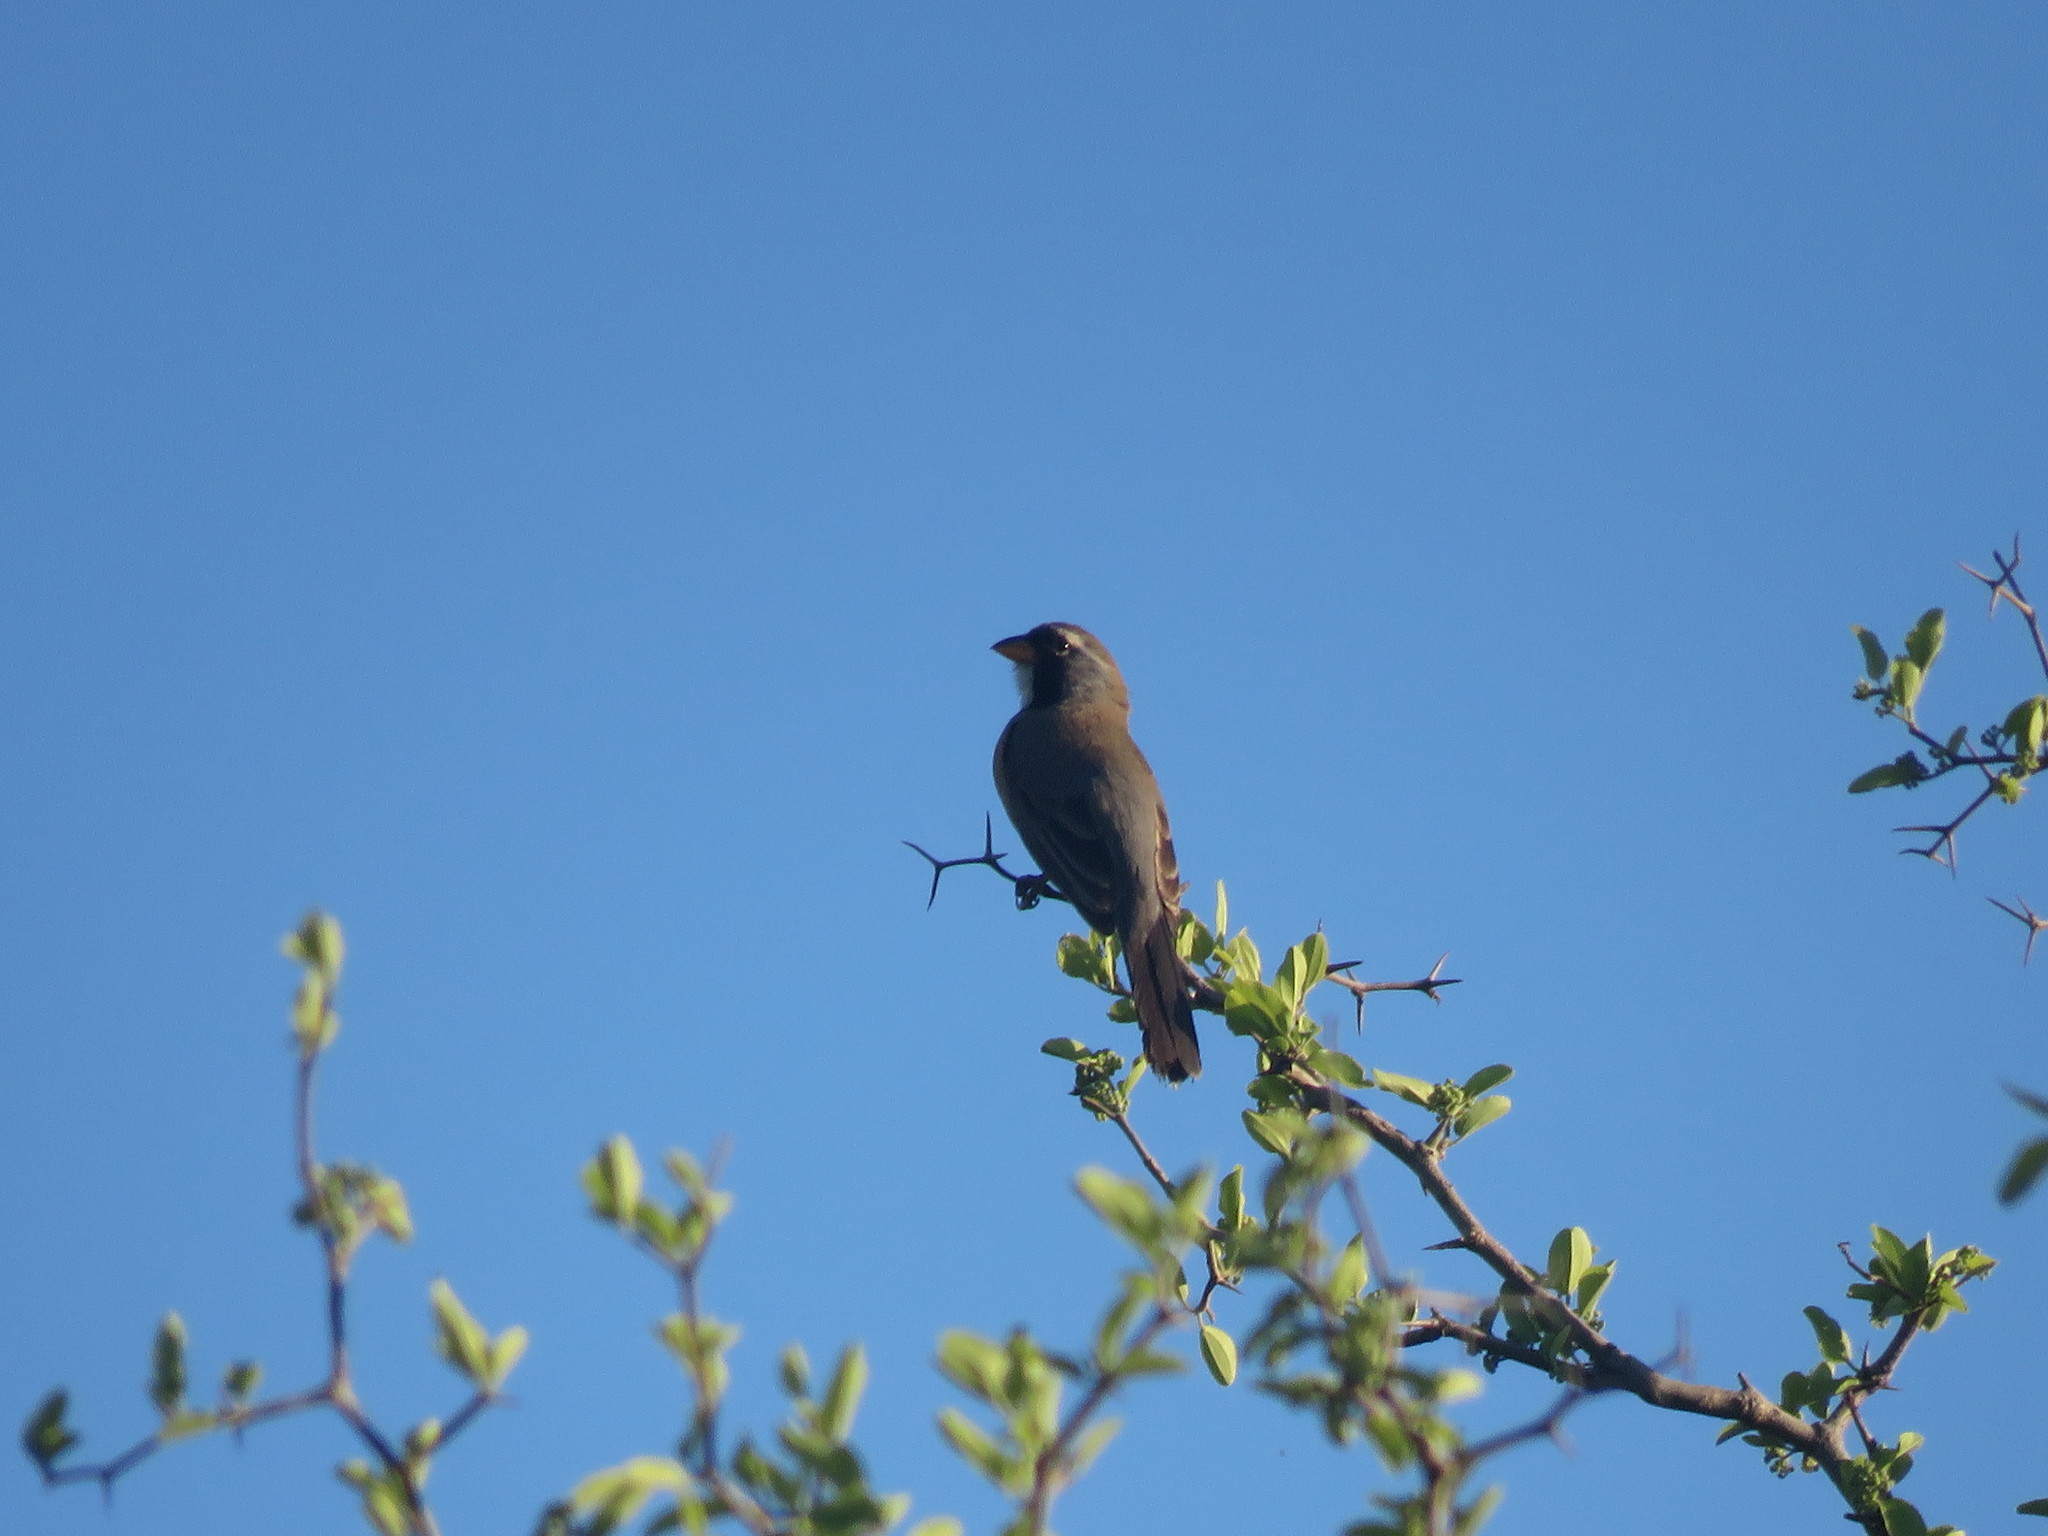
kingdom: Animalia
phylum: Chordata
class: Aves
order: Passeriformes
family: Thraupidae
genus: Saltatricula
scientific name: Saltatricula multicolor
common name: Many-colored chaco finch
